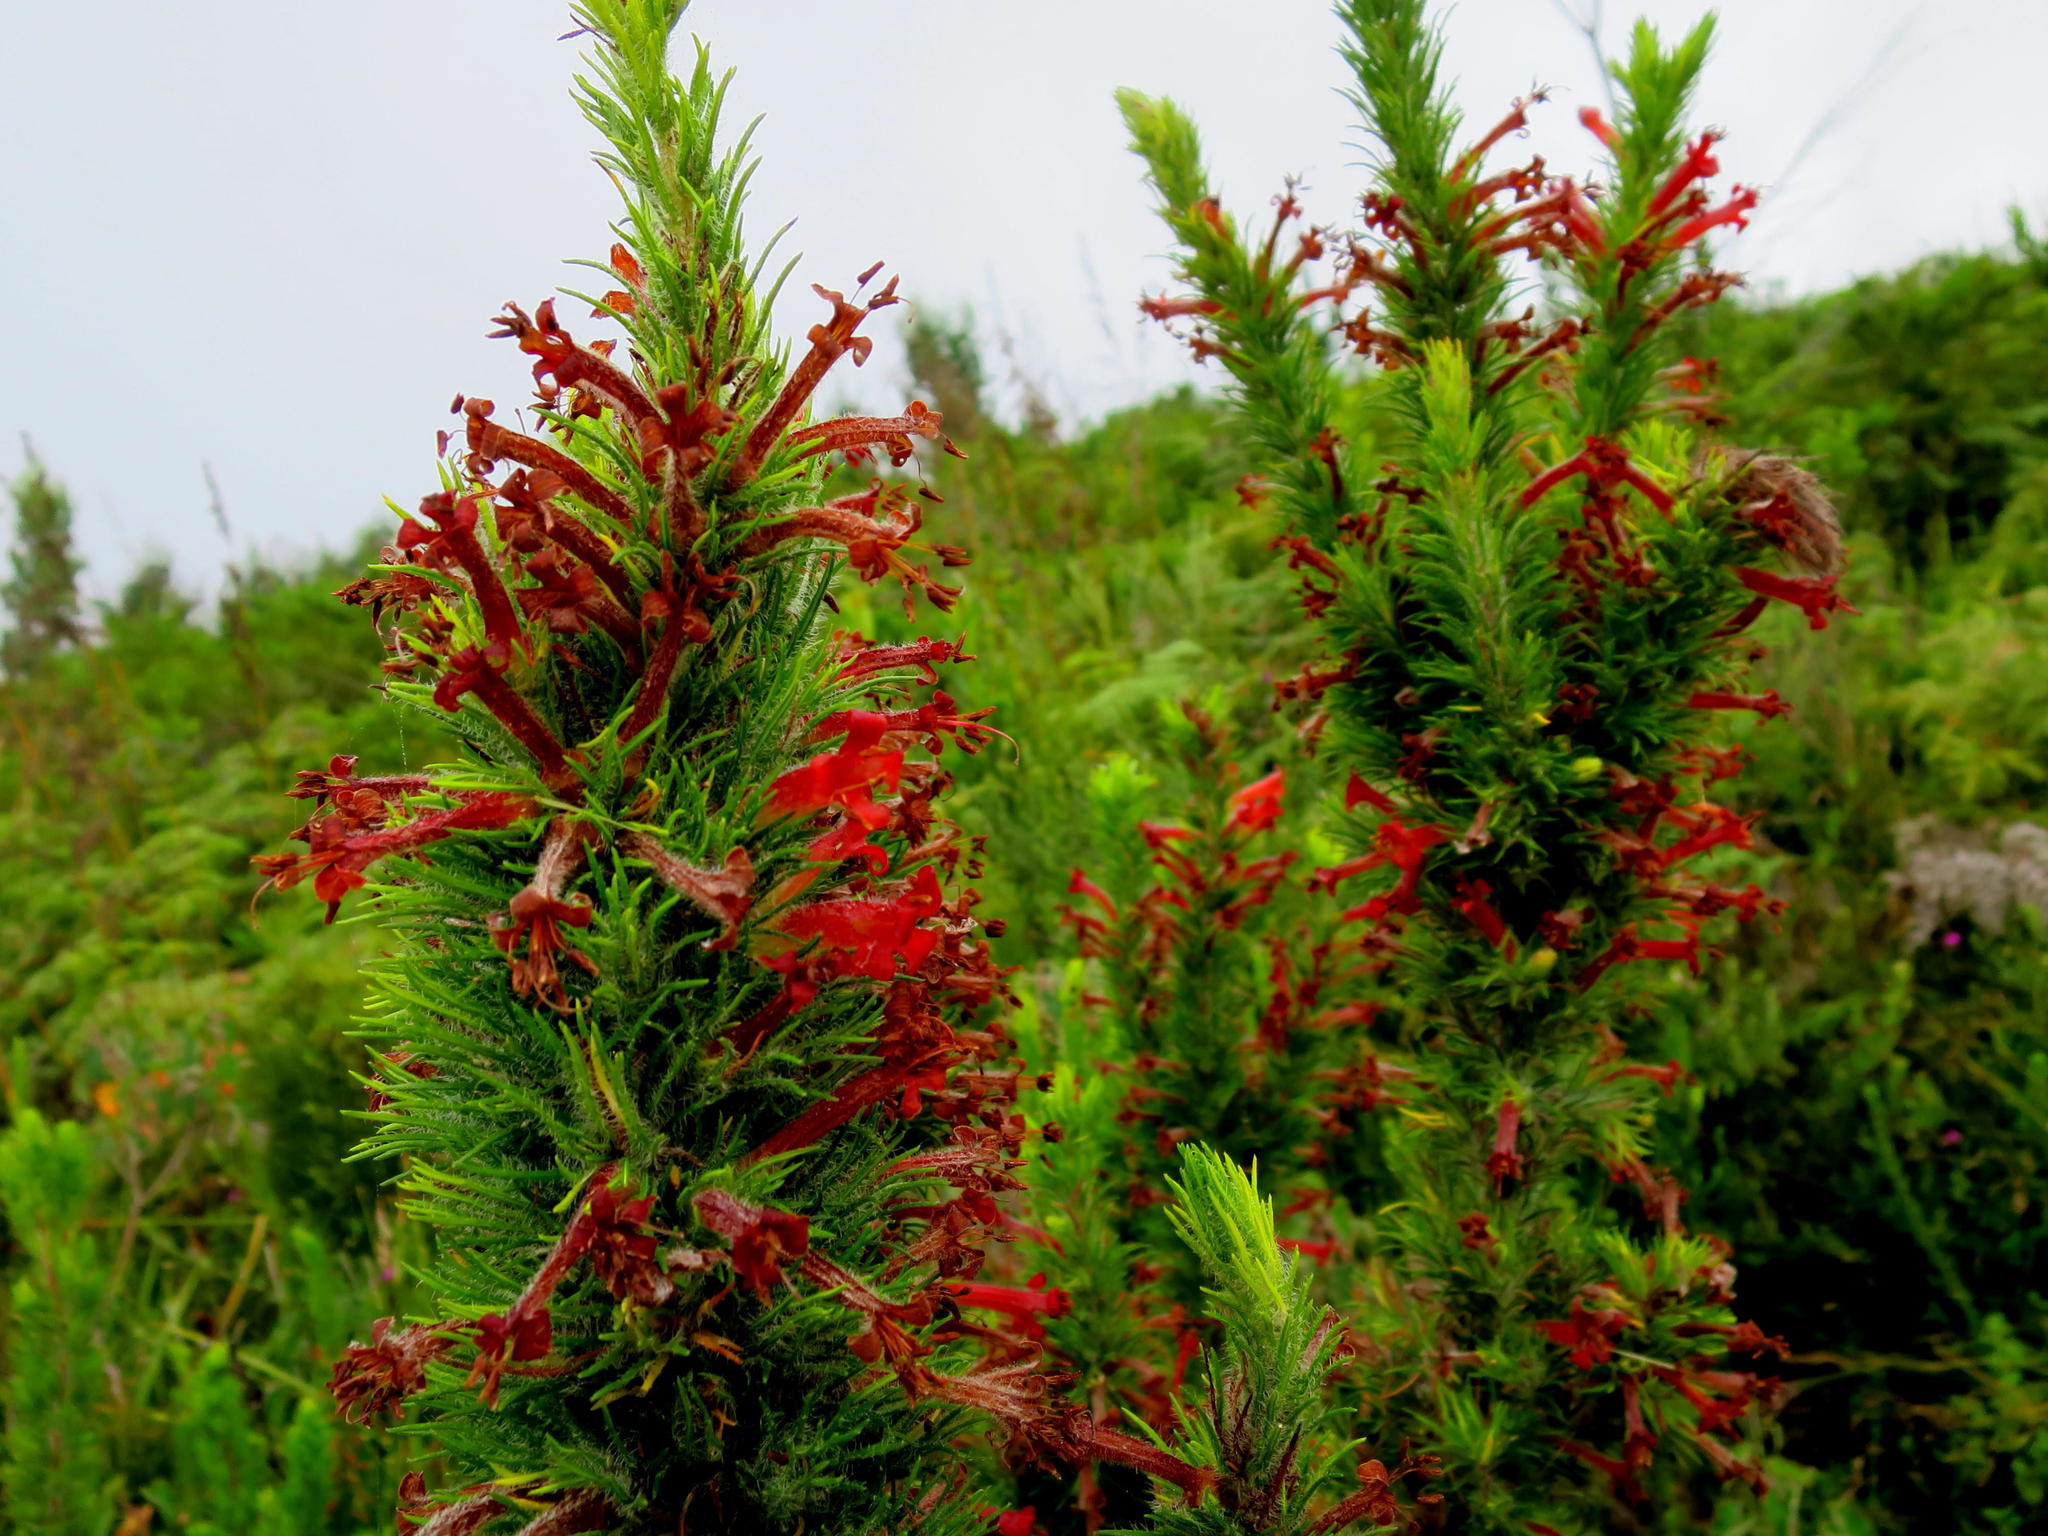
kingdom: Plantae
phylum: Tracheophyta
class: Magnoliopsida
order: Ericales
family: Ericaceae
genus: Erica
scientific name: Erica curviflora
